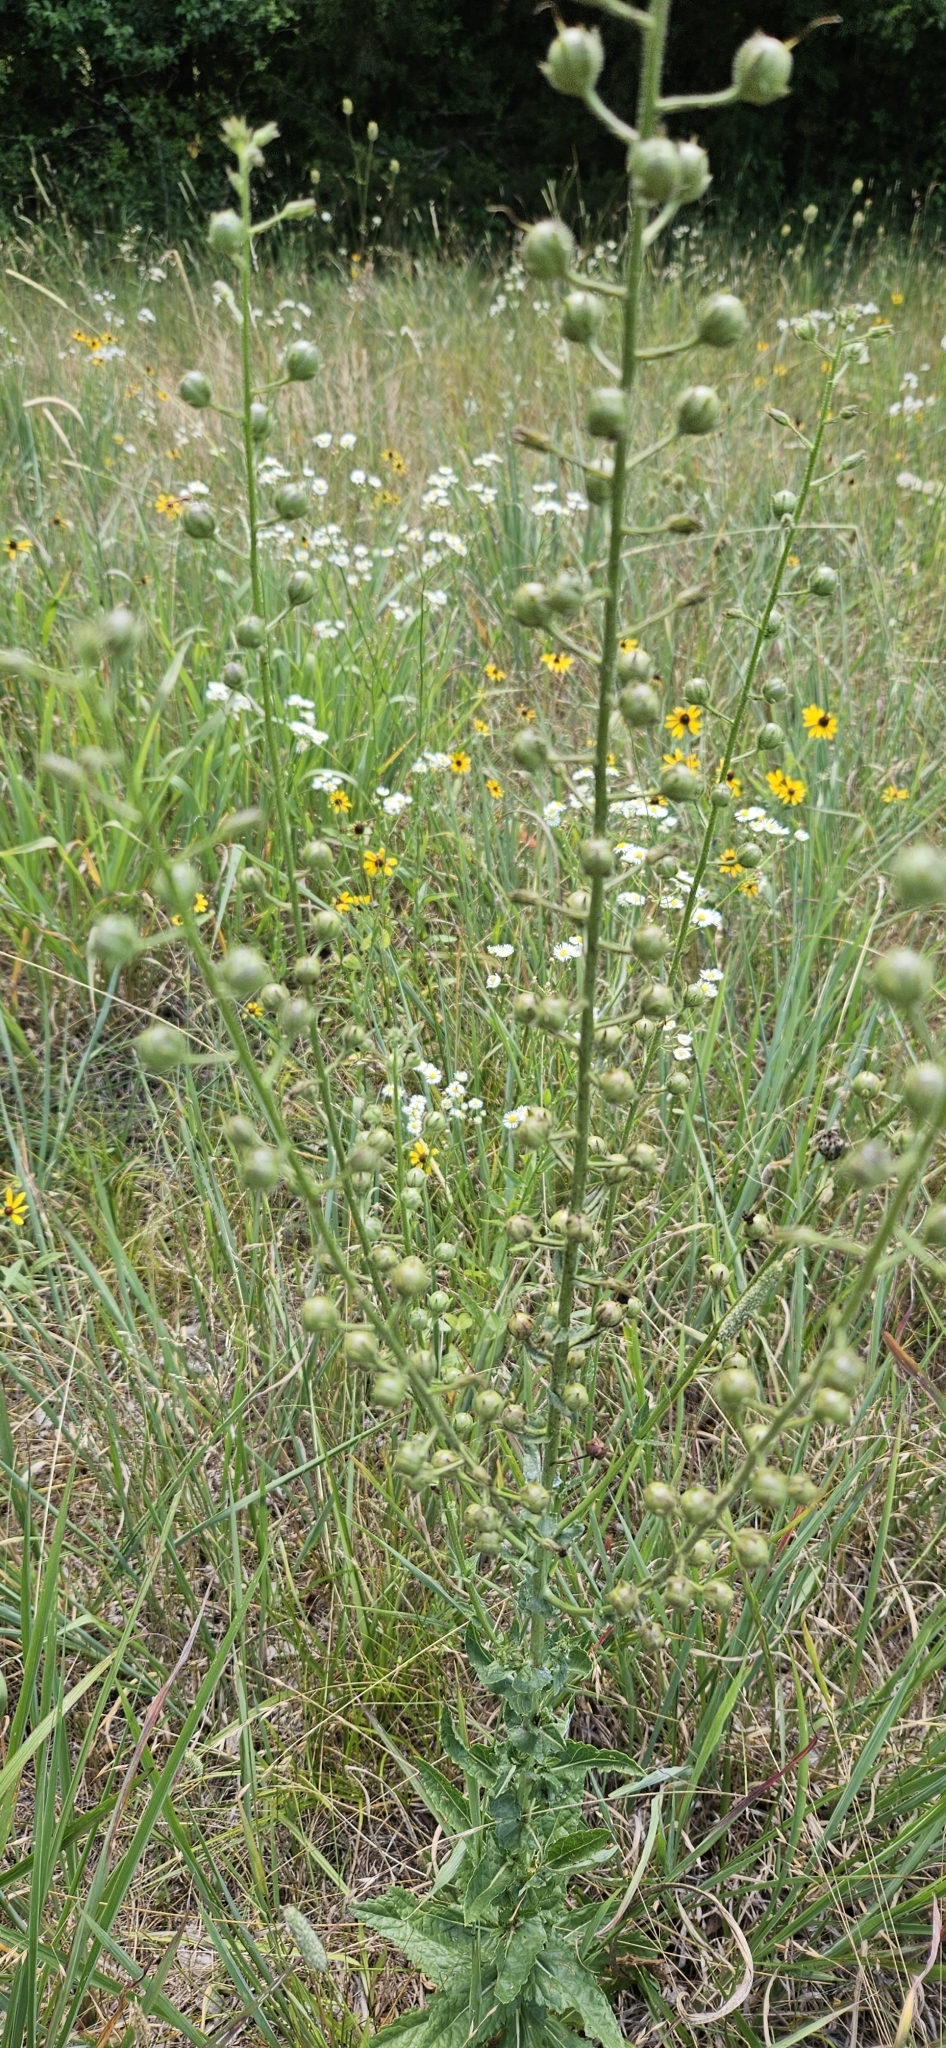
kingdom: Plantae
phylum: Tracheophyta
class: Magnoliopsida
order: Lamiales
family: Scrophulariaceae
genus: Verbascum
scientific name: Verbascum blattaria
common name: Moth mullein
